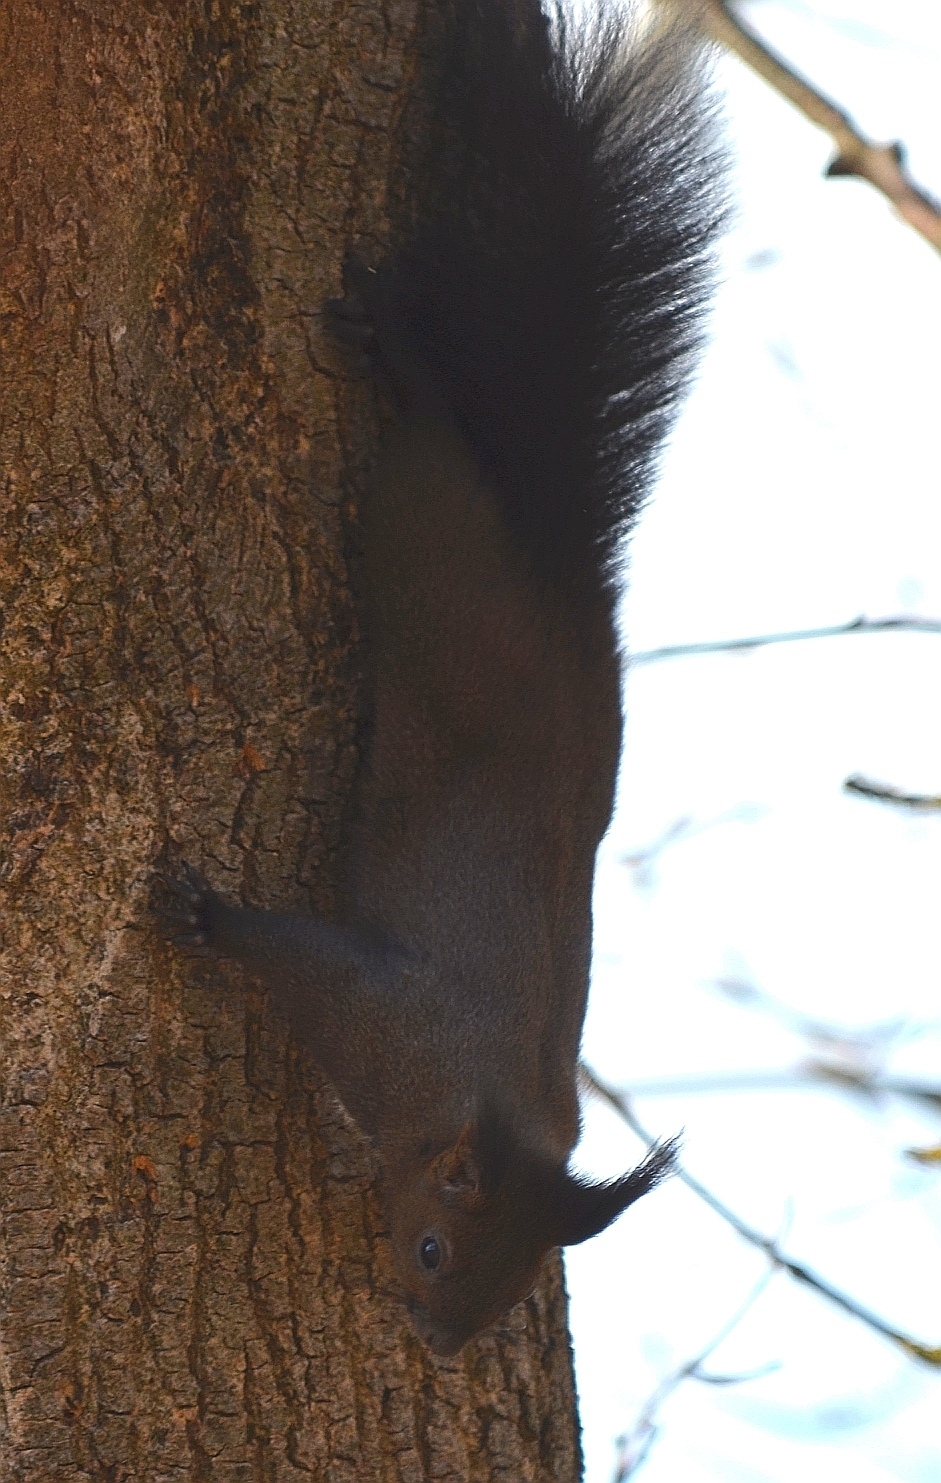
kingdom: Animalia
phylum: Chordata
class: Mammalia
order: Rodentia
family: Sciuridae
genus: Sciurus
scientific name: Sciurus vulgaris
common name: Eurasian red squirrel
